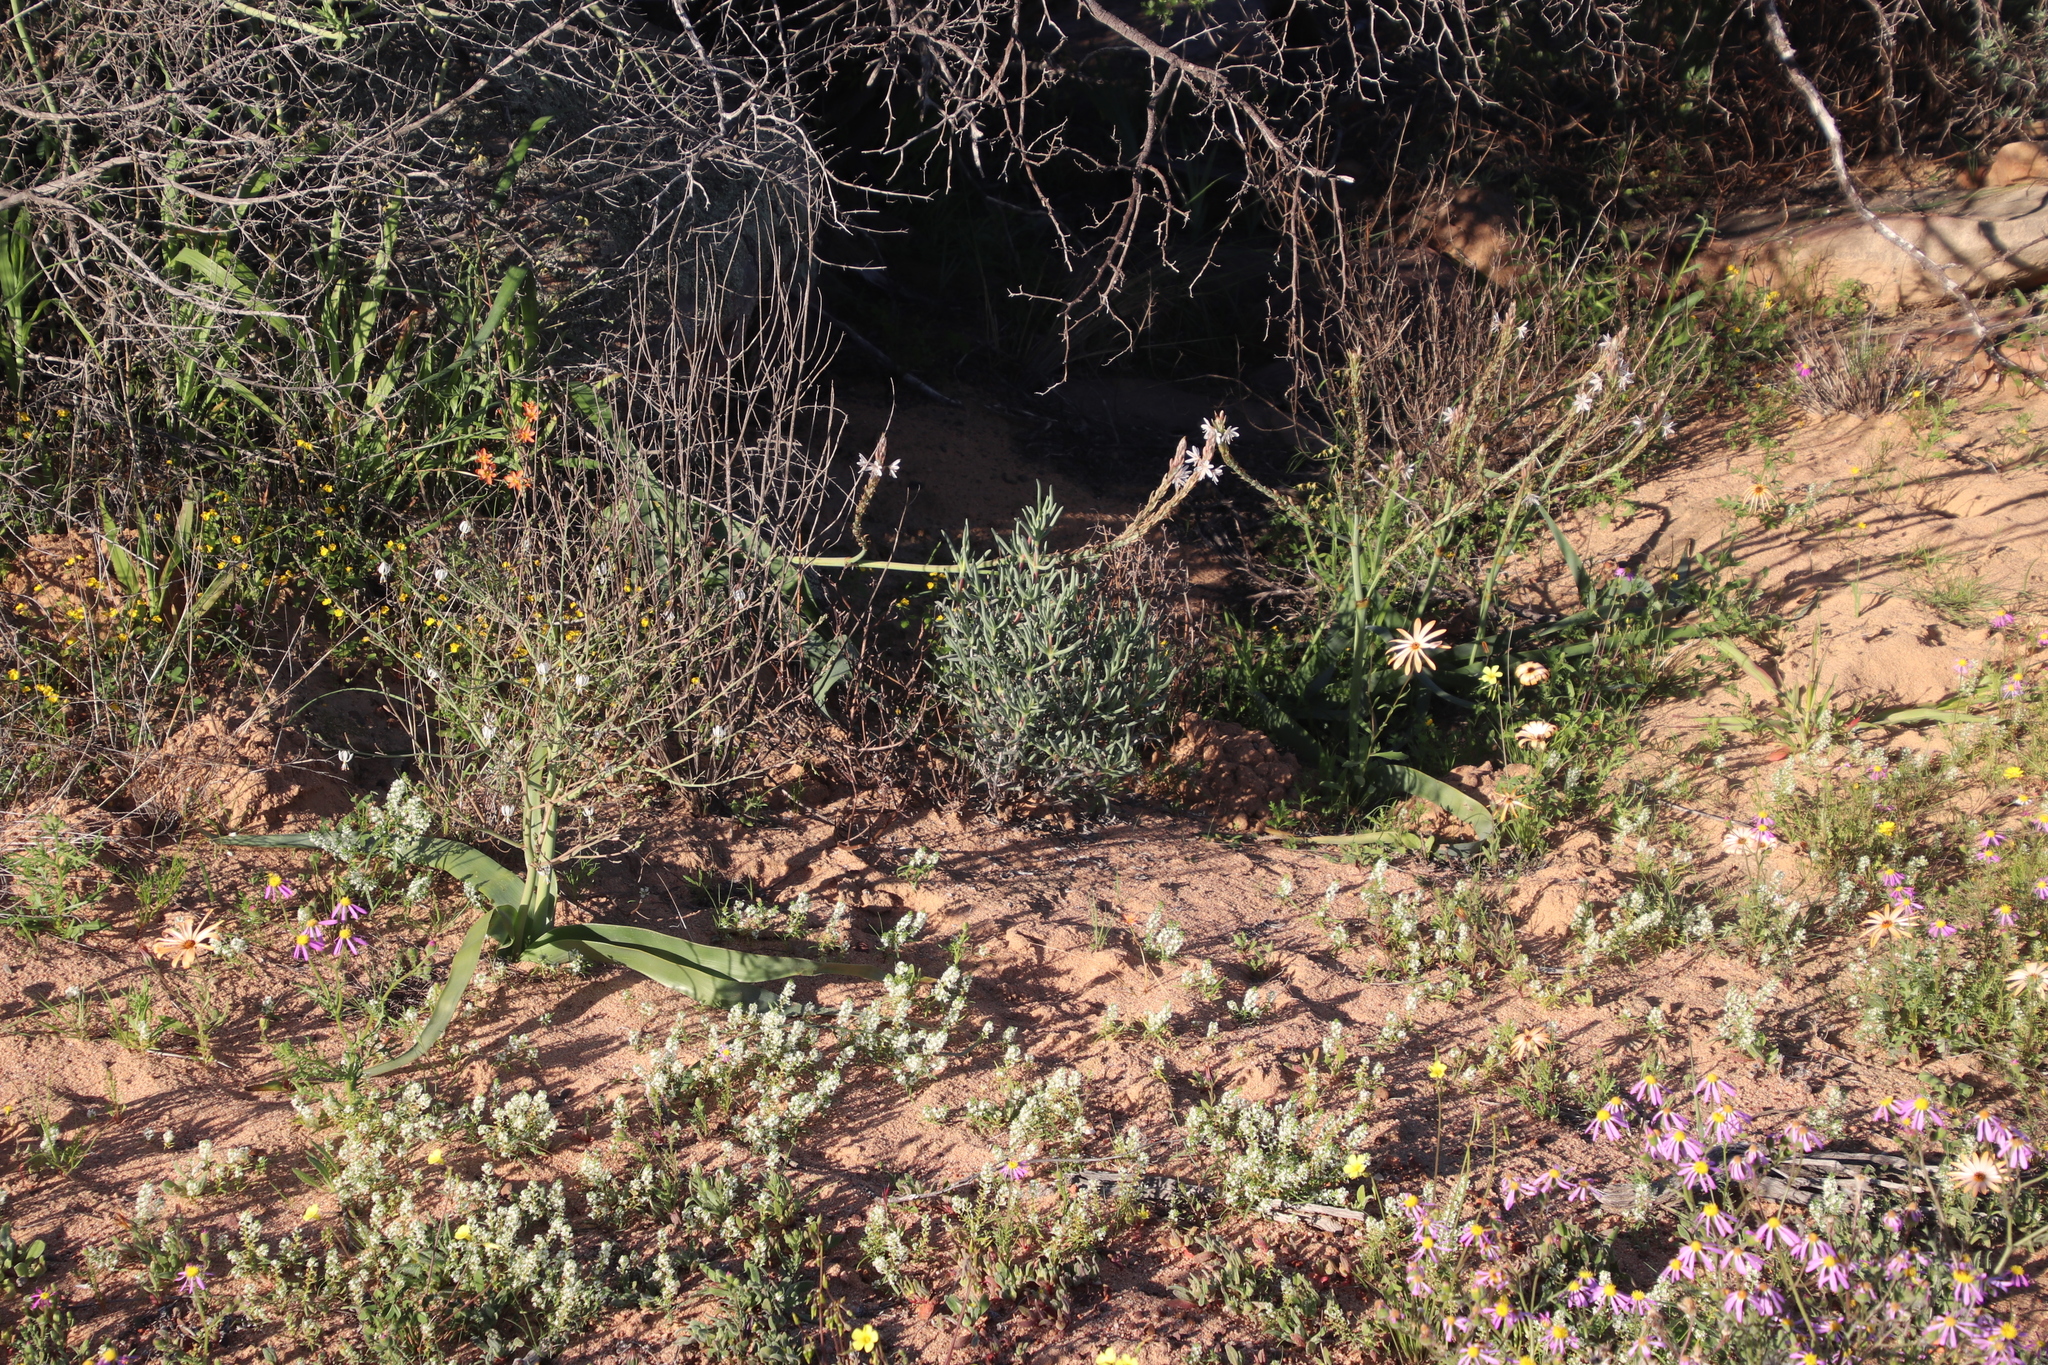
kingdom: Plantae
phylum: Tracheophyta
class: Liliopsida
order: Asparagales
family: Asphodelaceae
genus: Trachyandra
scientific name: Trachyandra falcata
